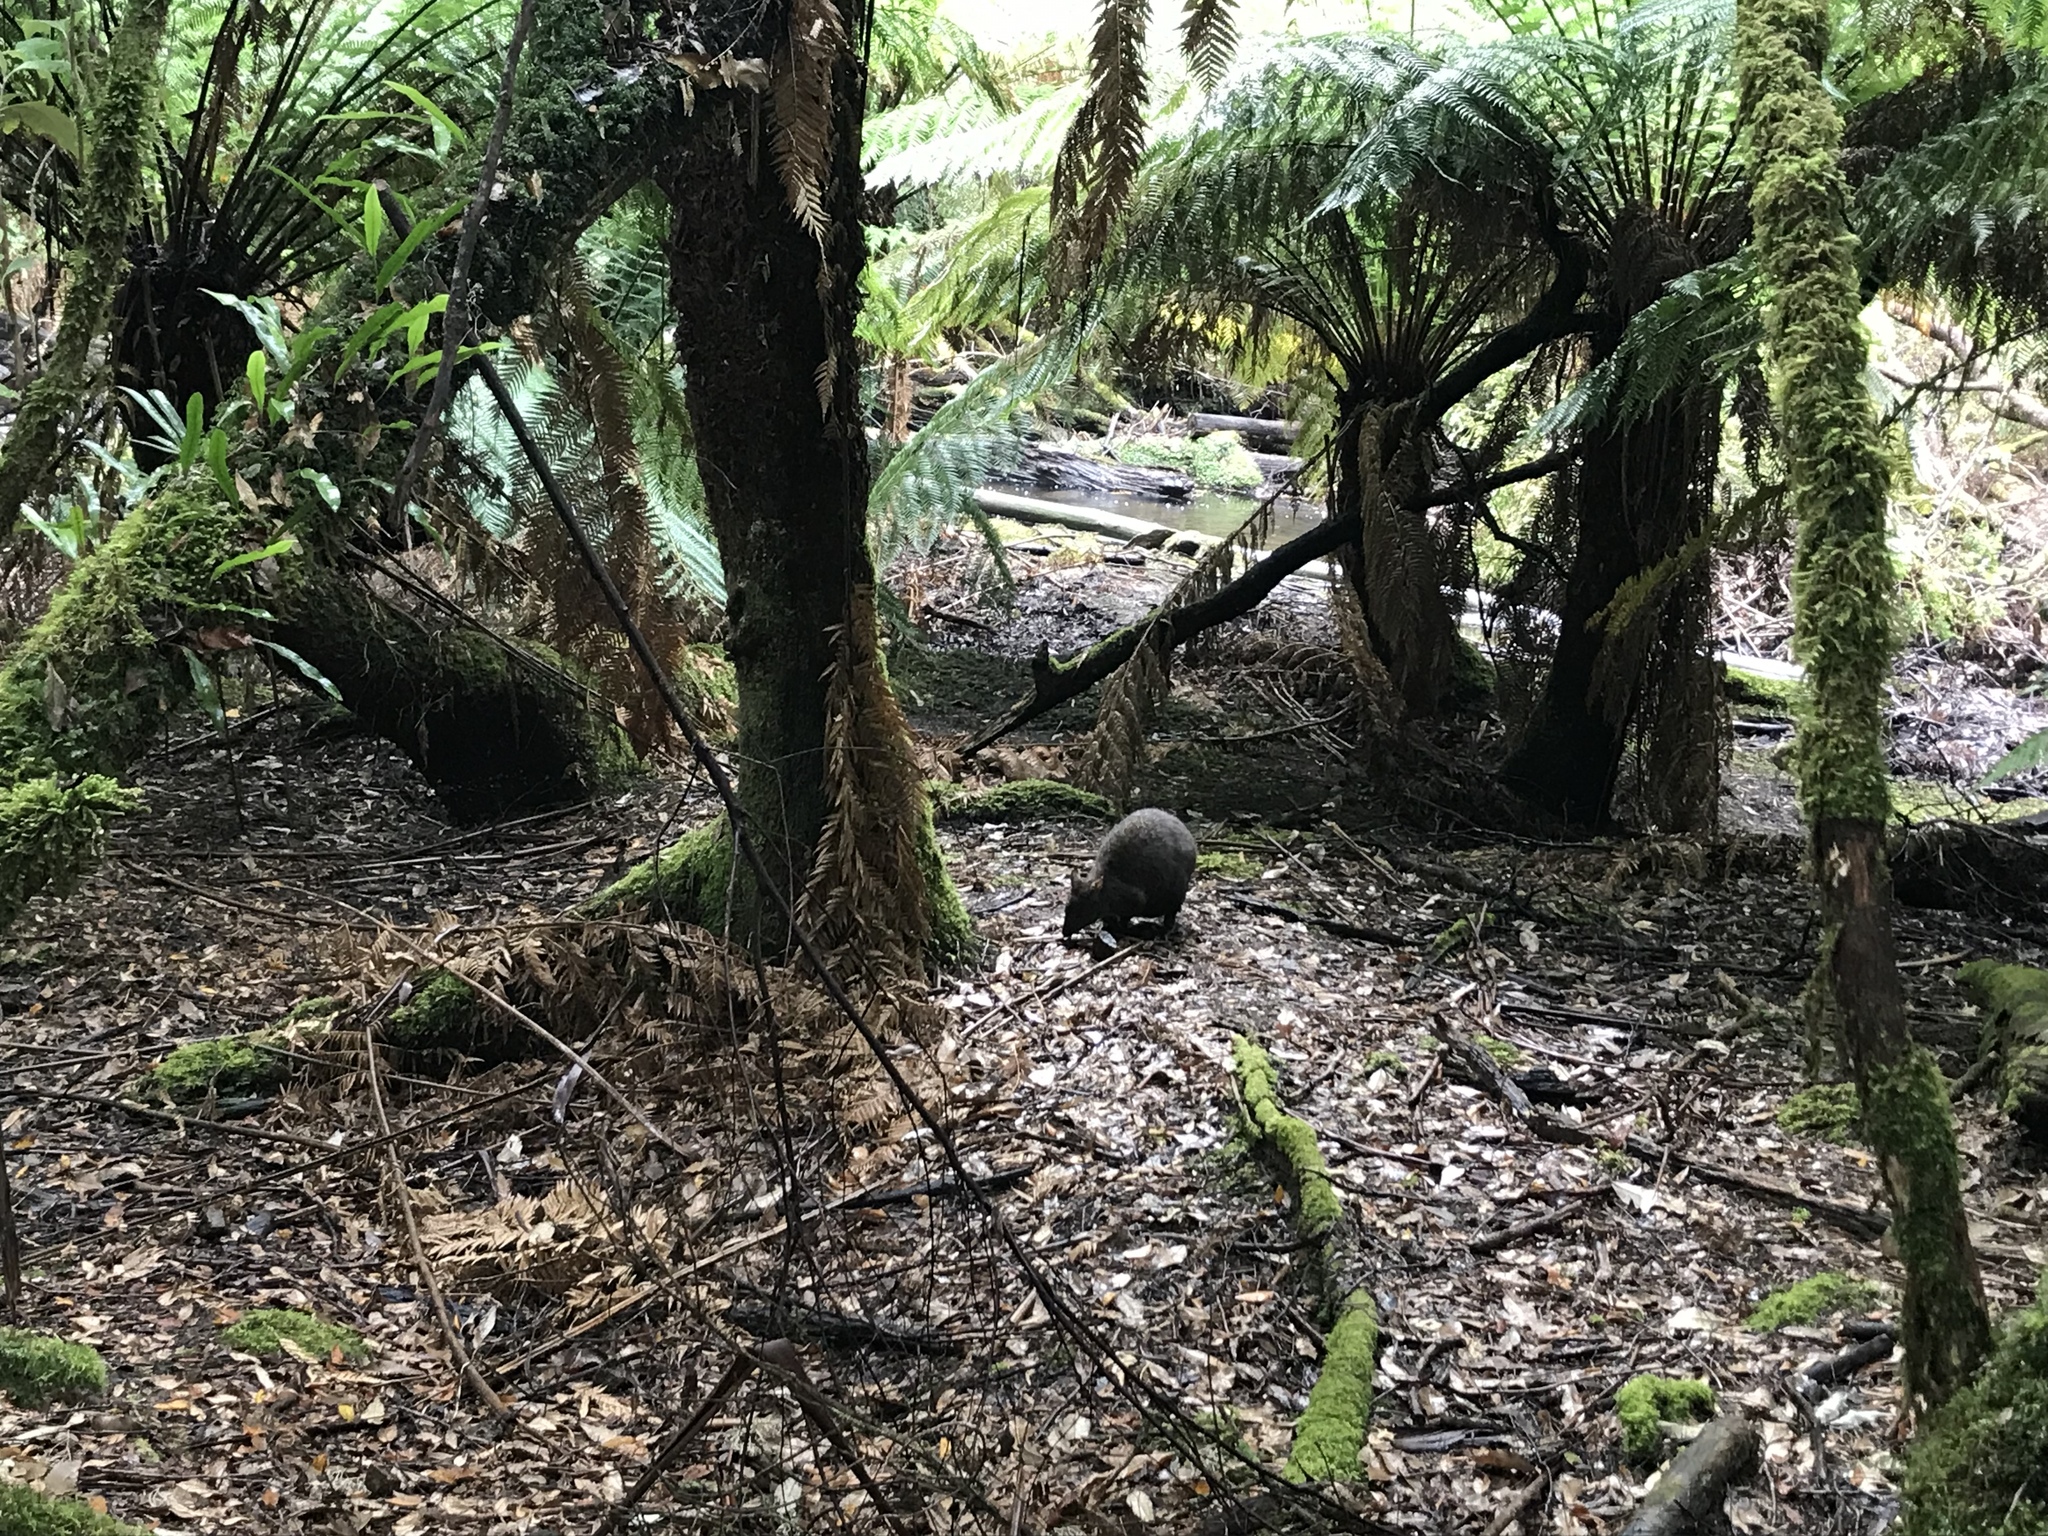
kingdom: Animalia
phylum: Chordata
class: Mammalia
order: Diprotodontia
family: Macropodidae
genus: Thylogale
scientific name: Thylogale billardierii
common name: Tasmanian pademelon
